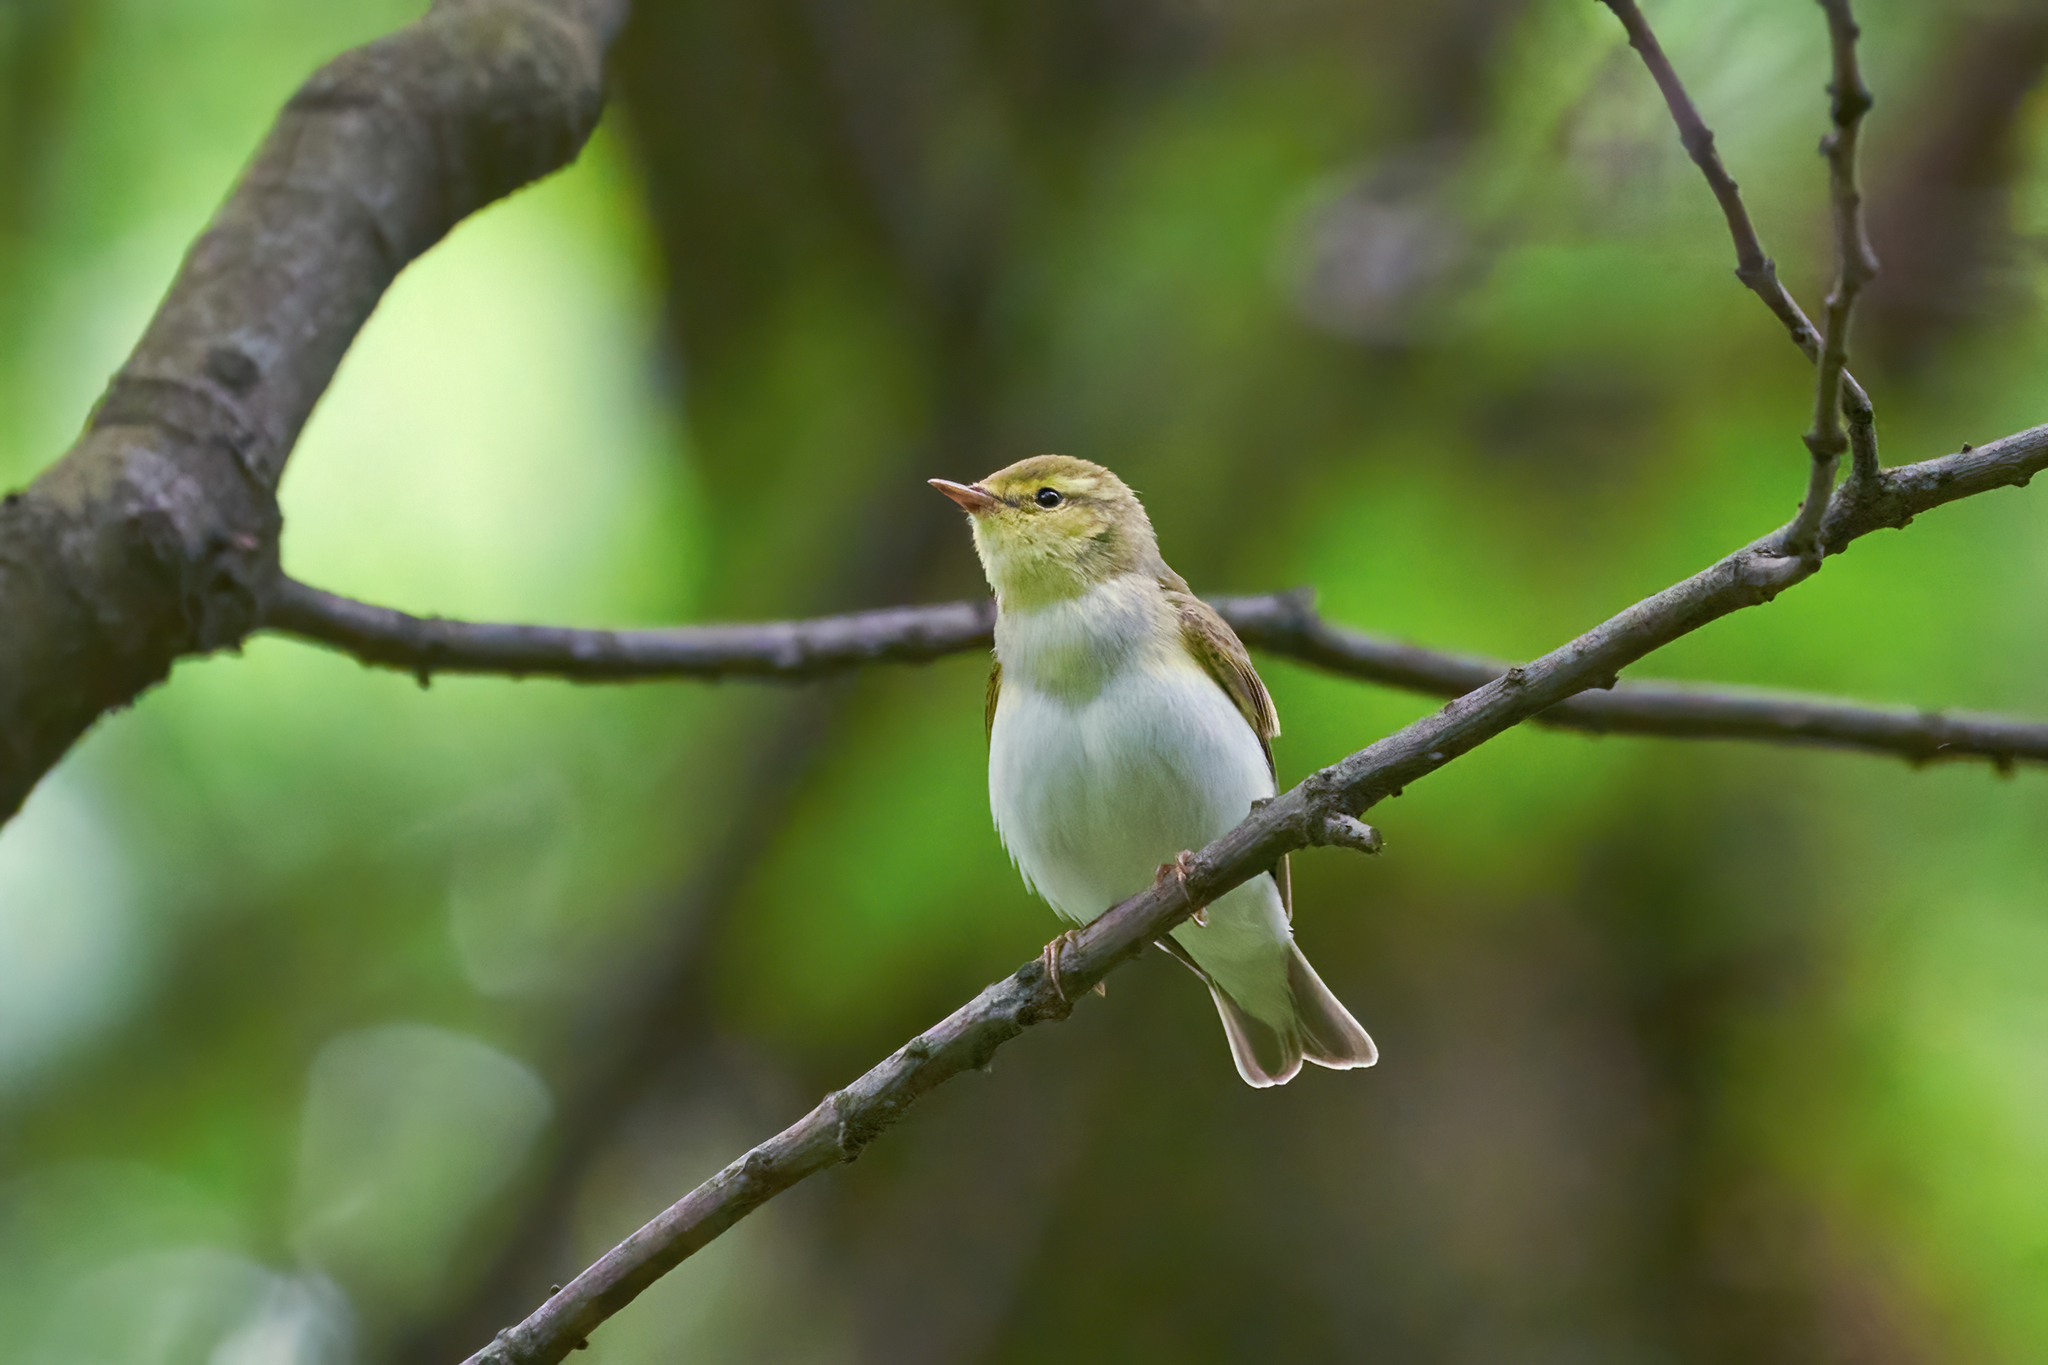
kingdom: Animalia
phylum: Chordata
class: Aves
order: Passeriformes
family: Phylloscopidae
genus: Phylloscopus
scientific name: Phylloscopus sibillatrix
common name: Wood warbler
